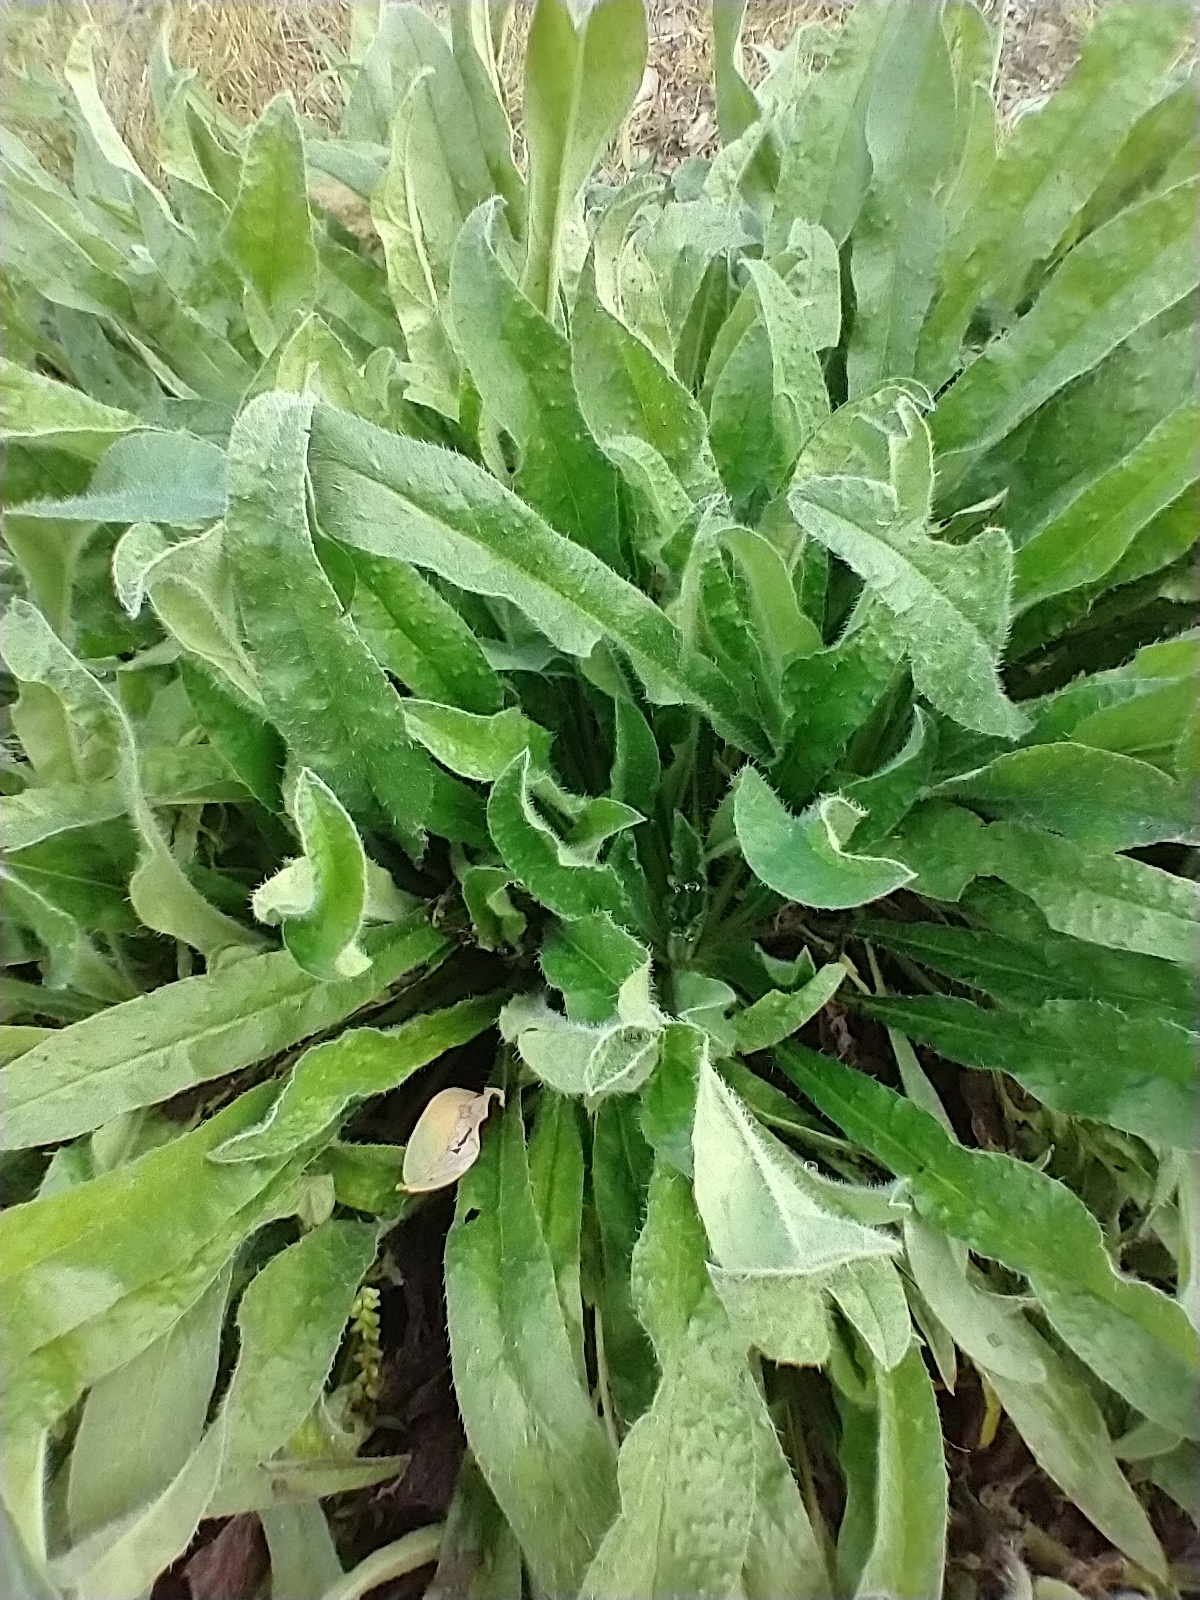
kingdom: Plantae
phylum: Tracheophyta
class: Magnoliopsida
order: Boraginales
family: Boraginaceae
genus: Echium
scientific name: Echium vulgare
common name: Common viper's bugloss
